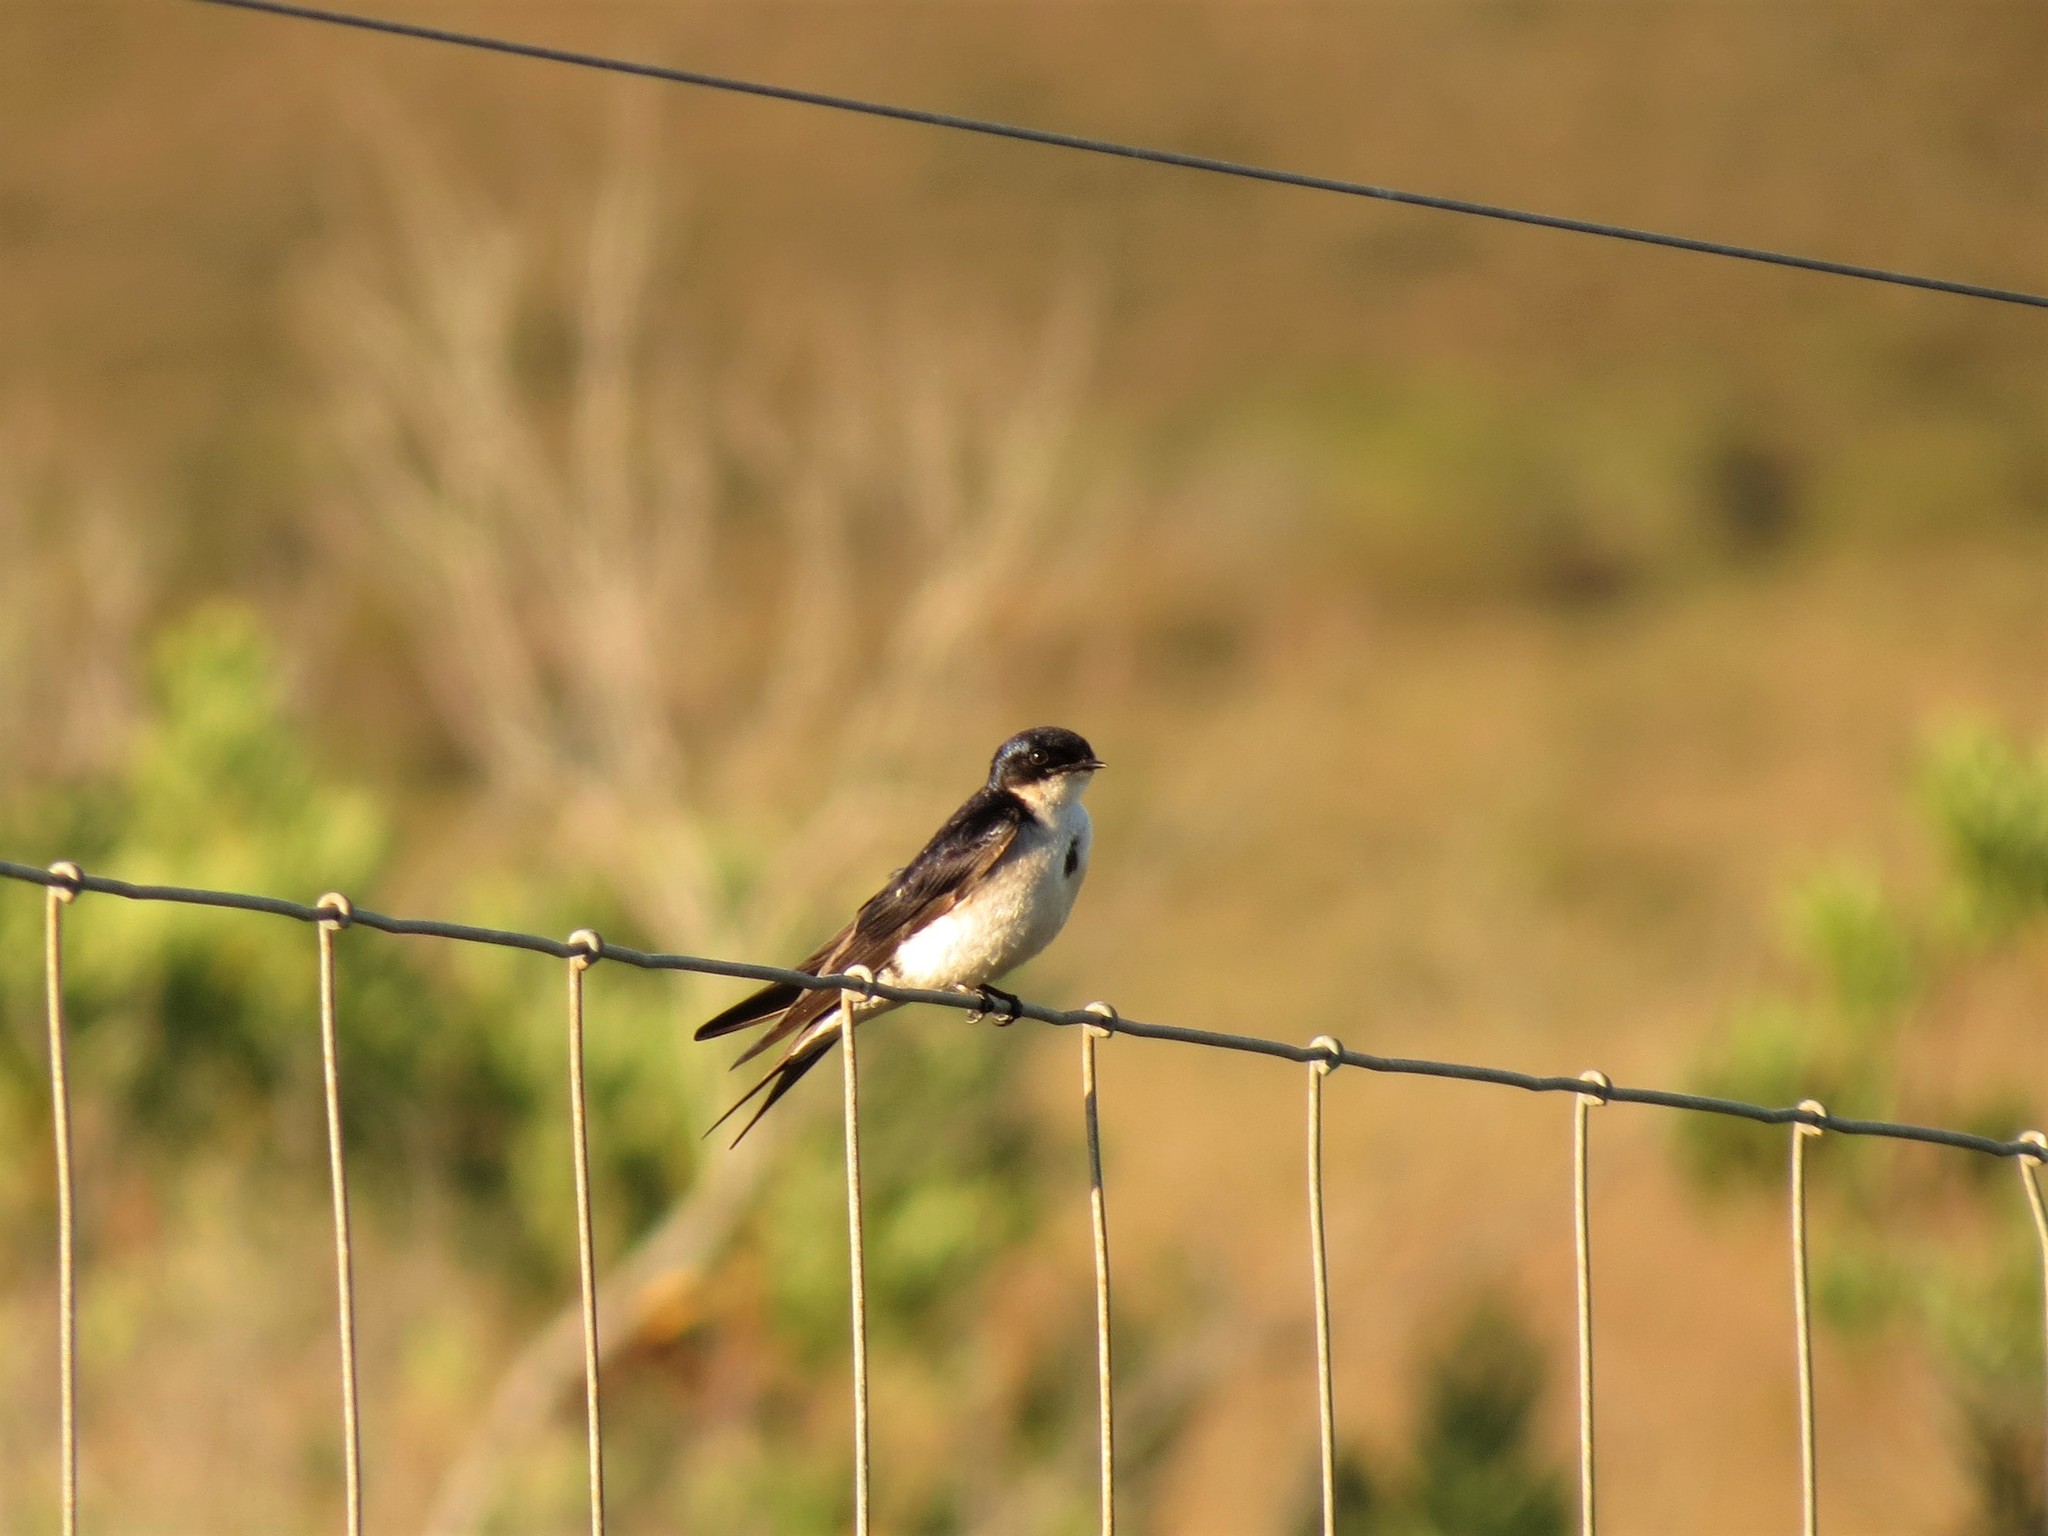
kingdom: Animalia
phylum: Chordata
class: Aves
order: Passeriformes
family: Hirundinidae
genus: Hirundo
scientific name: Hirundo dimidiata
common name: Pearl-breasted swallow
